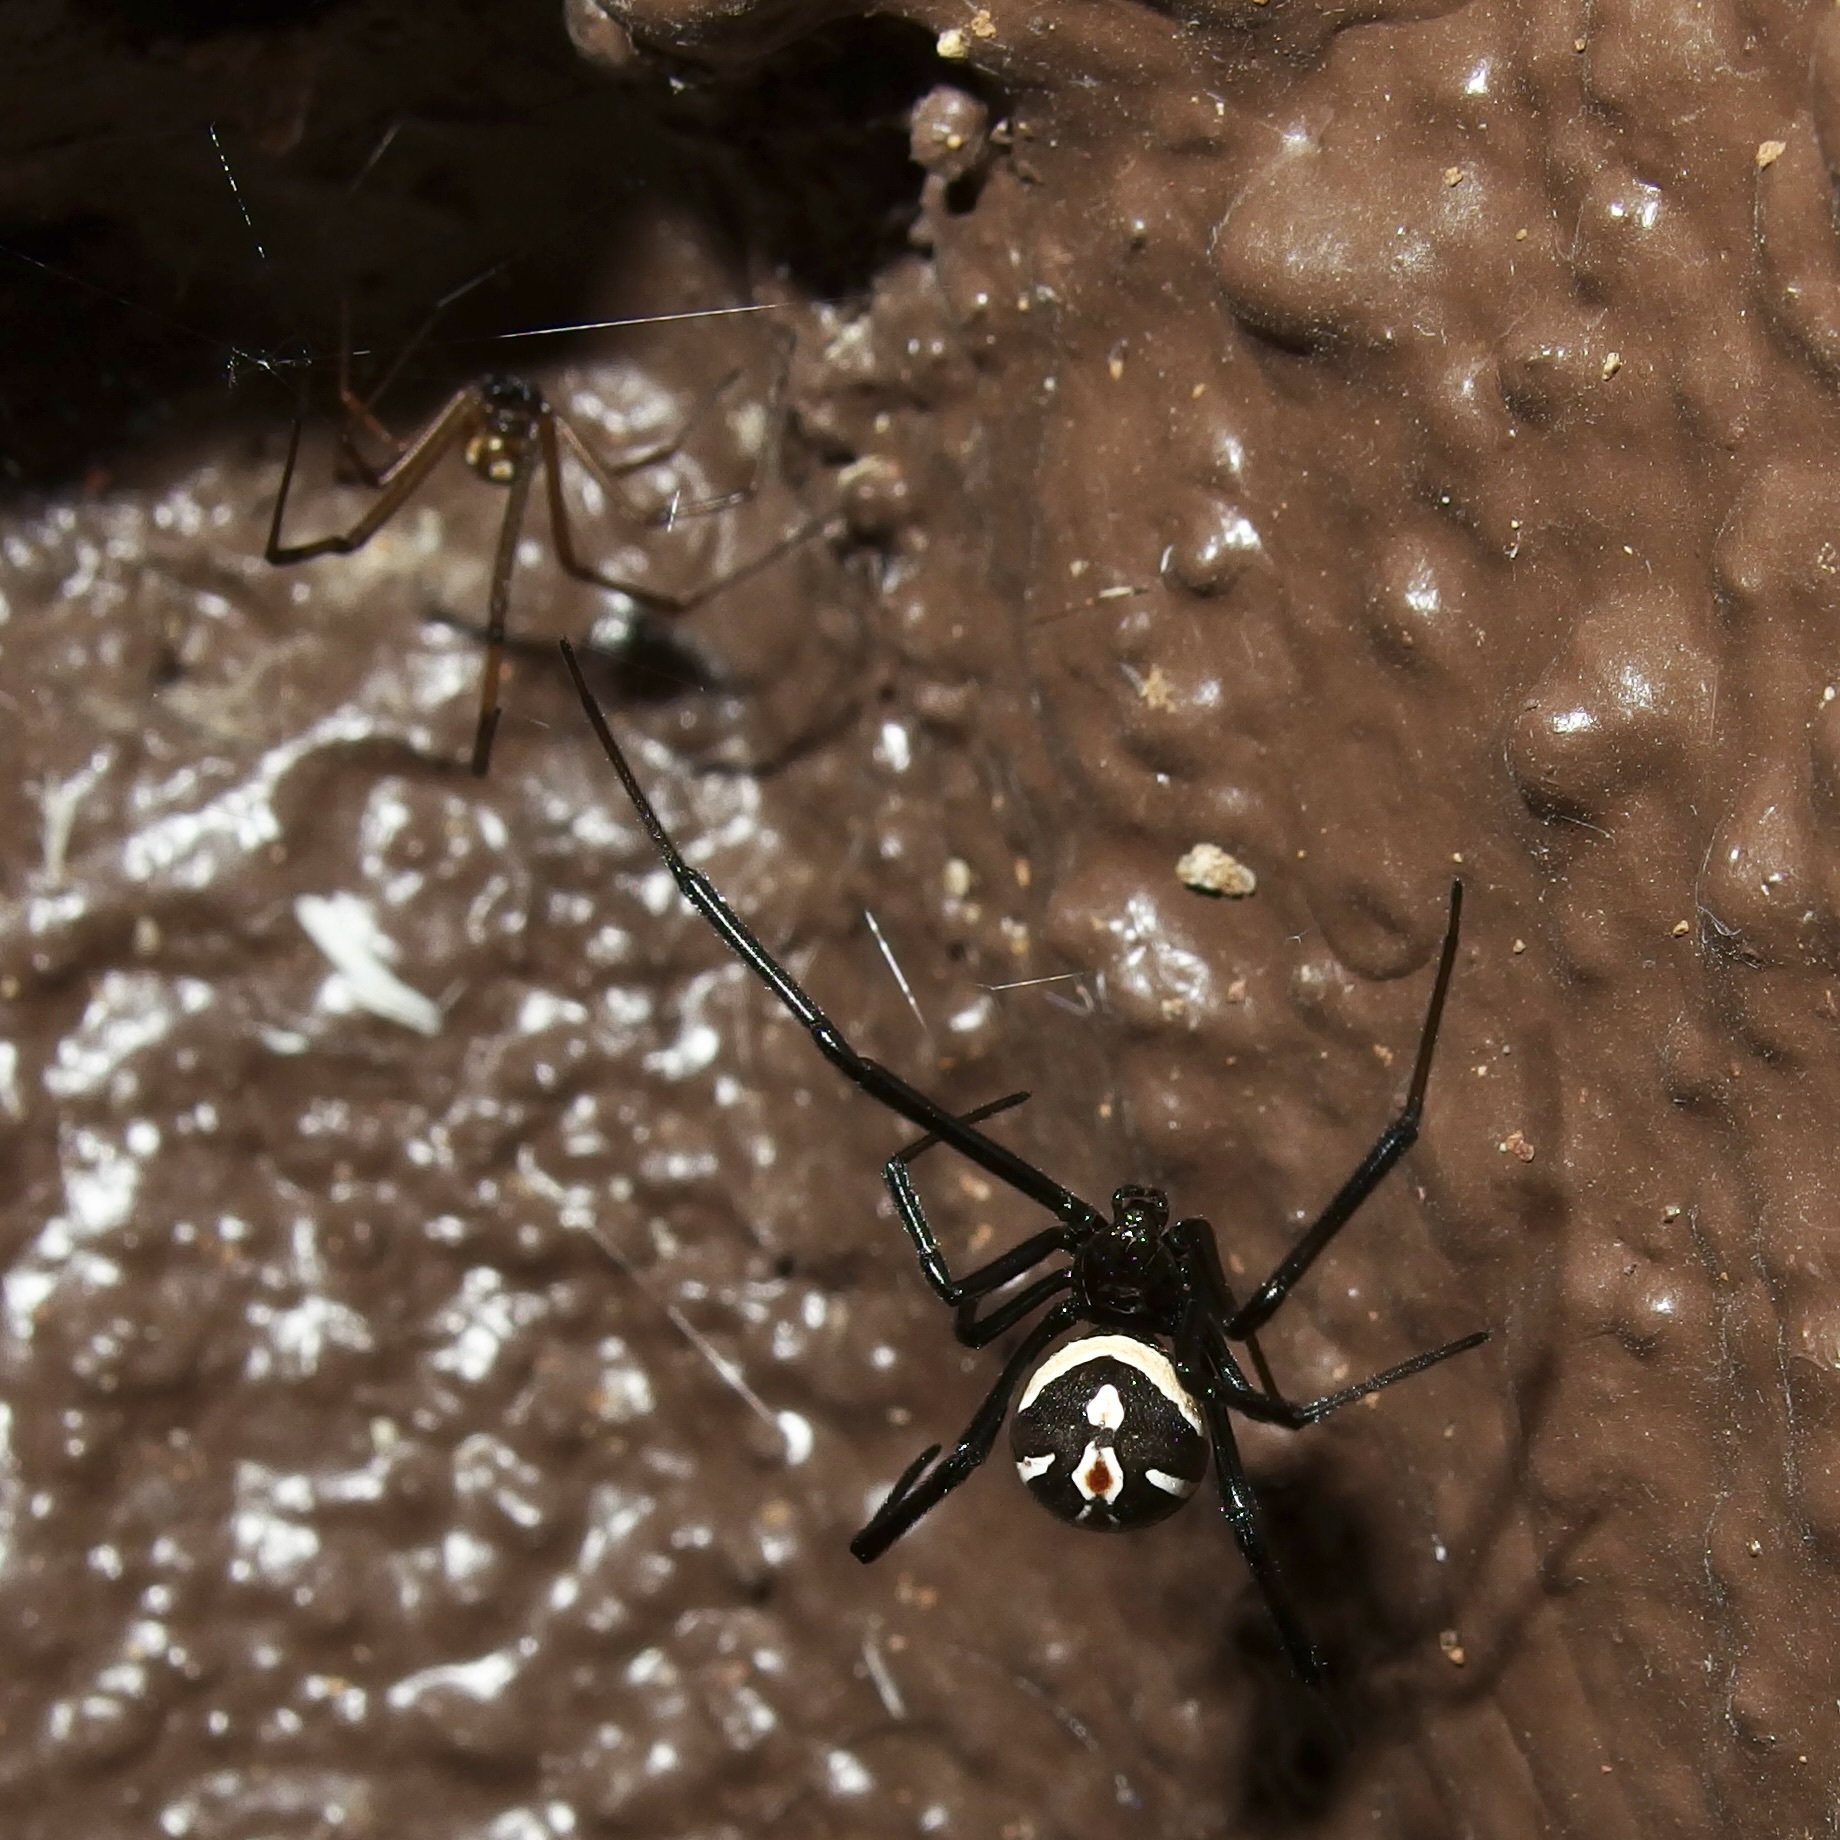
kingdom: Animalia
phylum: Arthropoda
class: Arachnida
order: Araneae
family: Theridiidae
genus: Latrodectus
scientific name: Latrodectus hesperus
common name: Western black widow
